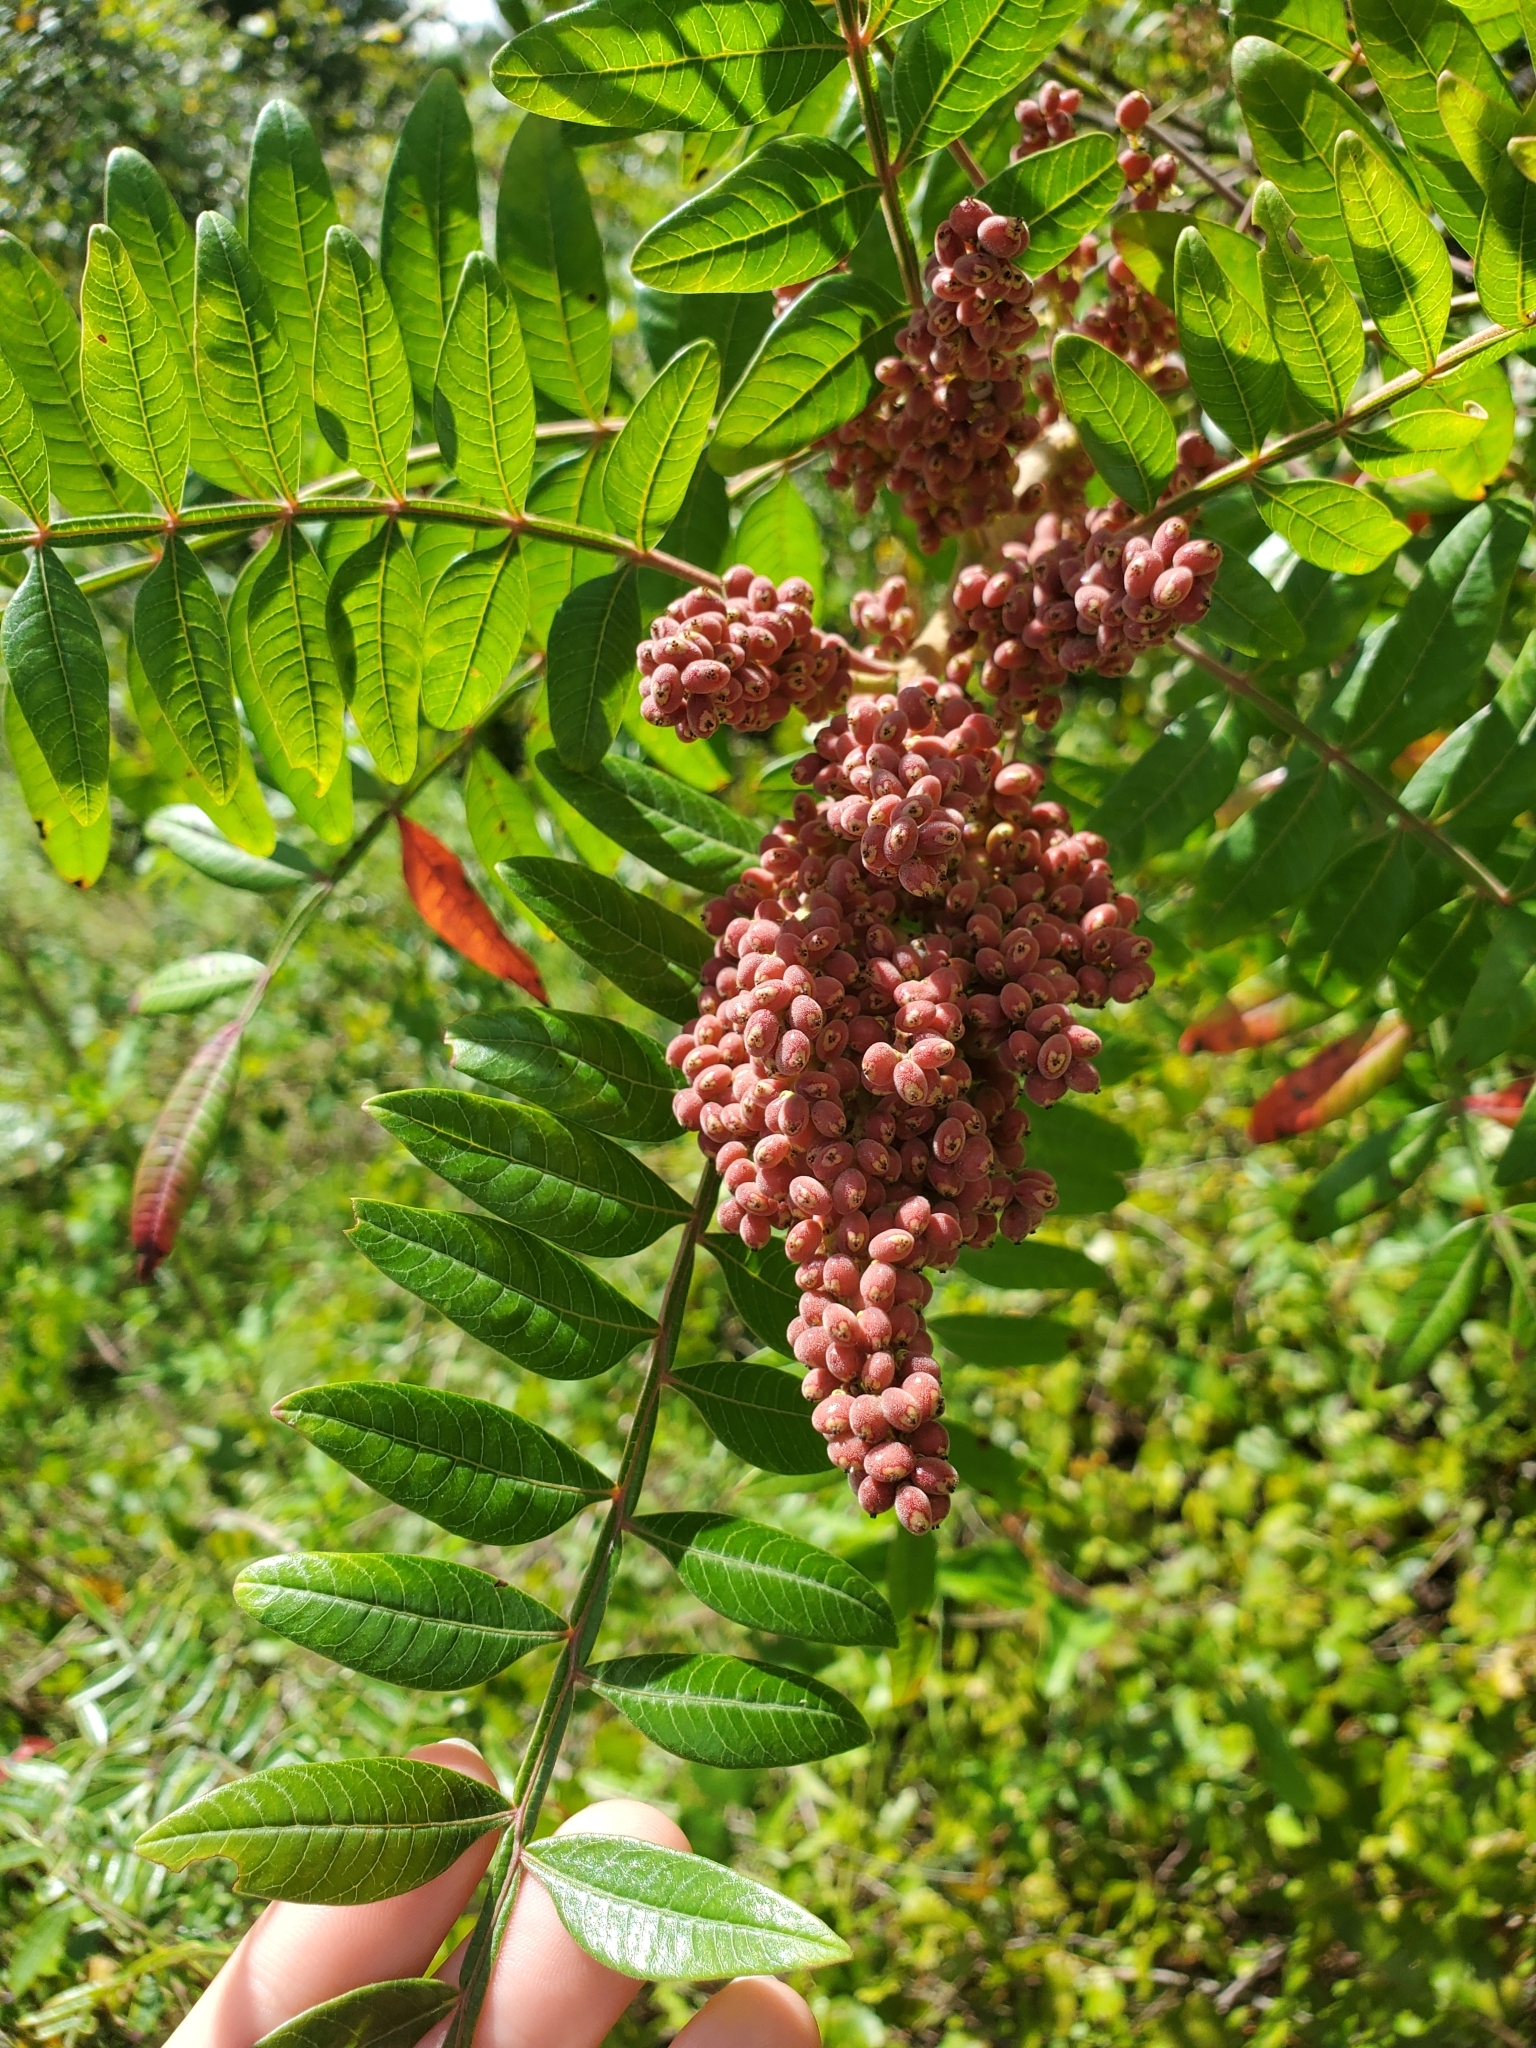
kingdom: Plantae
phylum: Tracheophyta
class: Magnoliopsida
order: Sapindales
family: Anacardiaceae
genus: Rhus
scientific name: Rhus copallina
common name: Shining sumac
